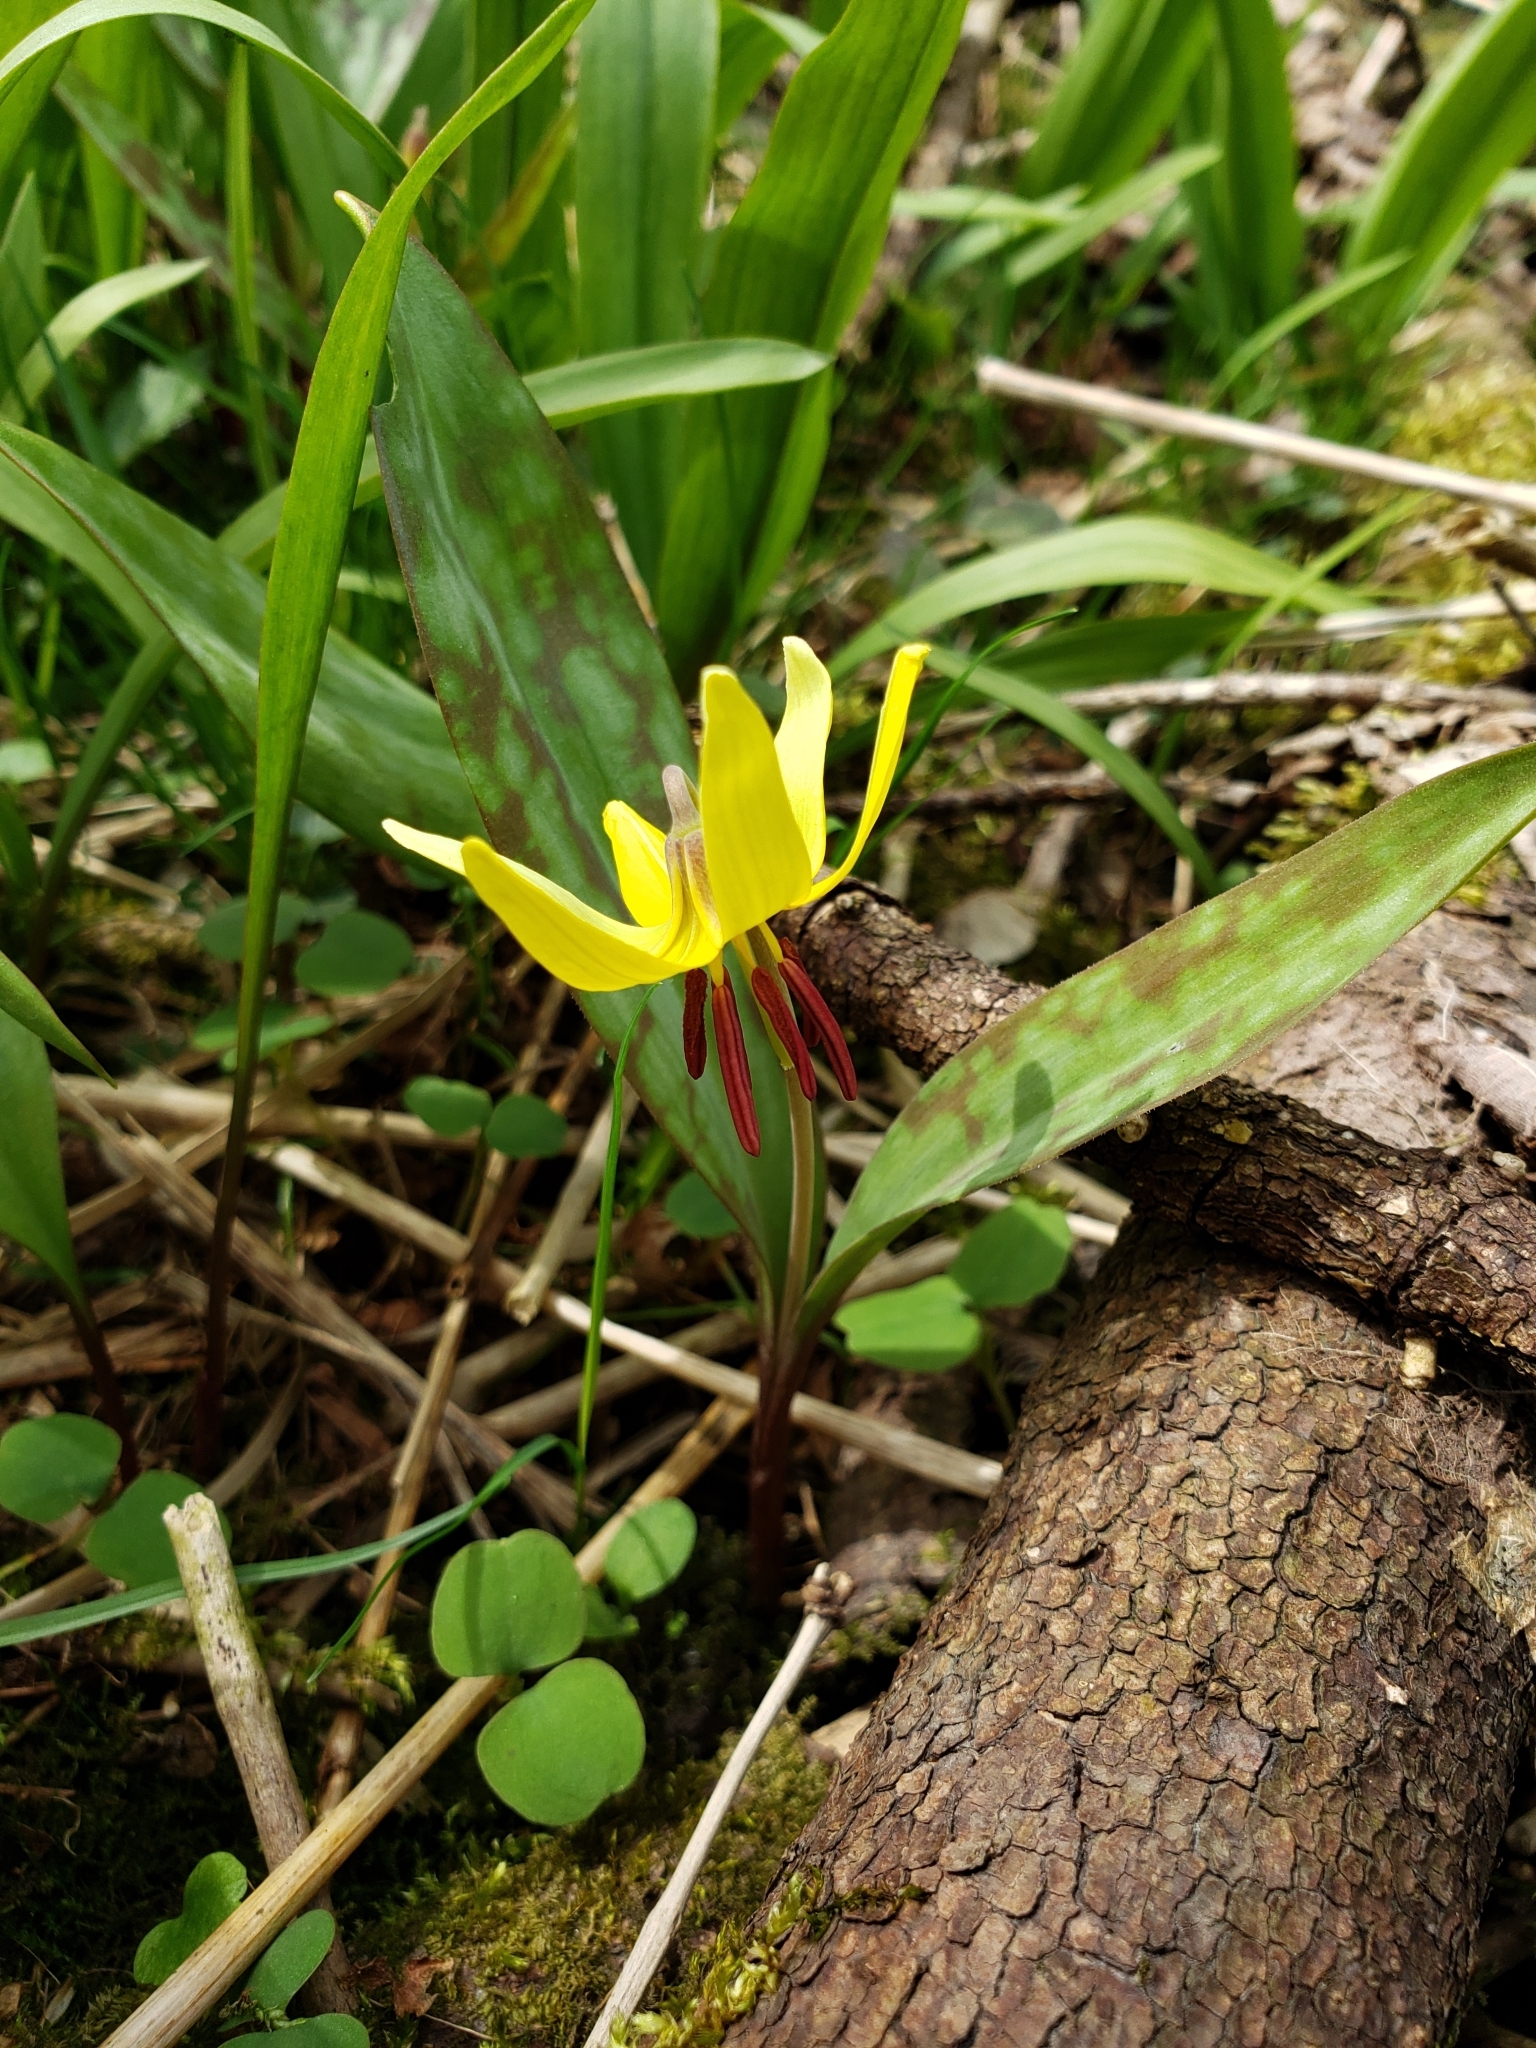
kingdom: Plantae
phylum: Tracheophyta
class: Liliopsida
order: Liliales
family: Liliaceae
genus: Erythronium
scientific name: Erythronium americanum
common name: Yellow adder's-tongue
